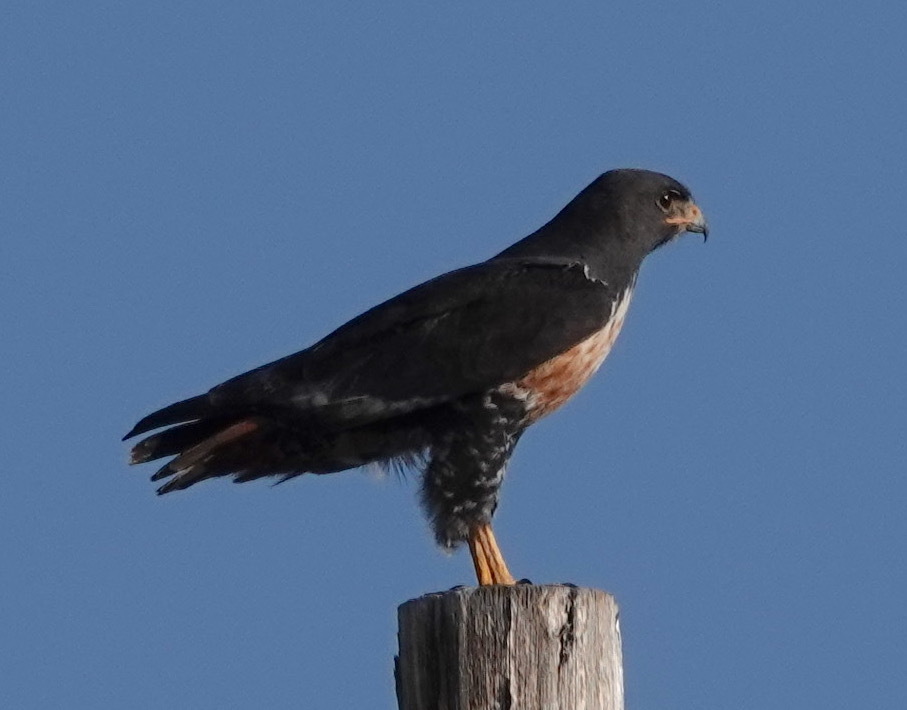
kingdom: Animalia
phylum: Chordata
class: Aves
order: Accipitriformes
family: Accipitridae
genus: Buteo
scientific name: Buteo rufofuscus
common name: Jackal buzzard
